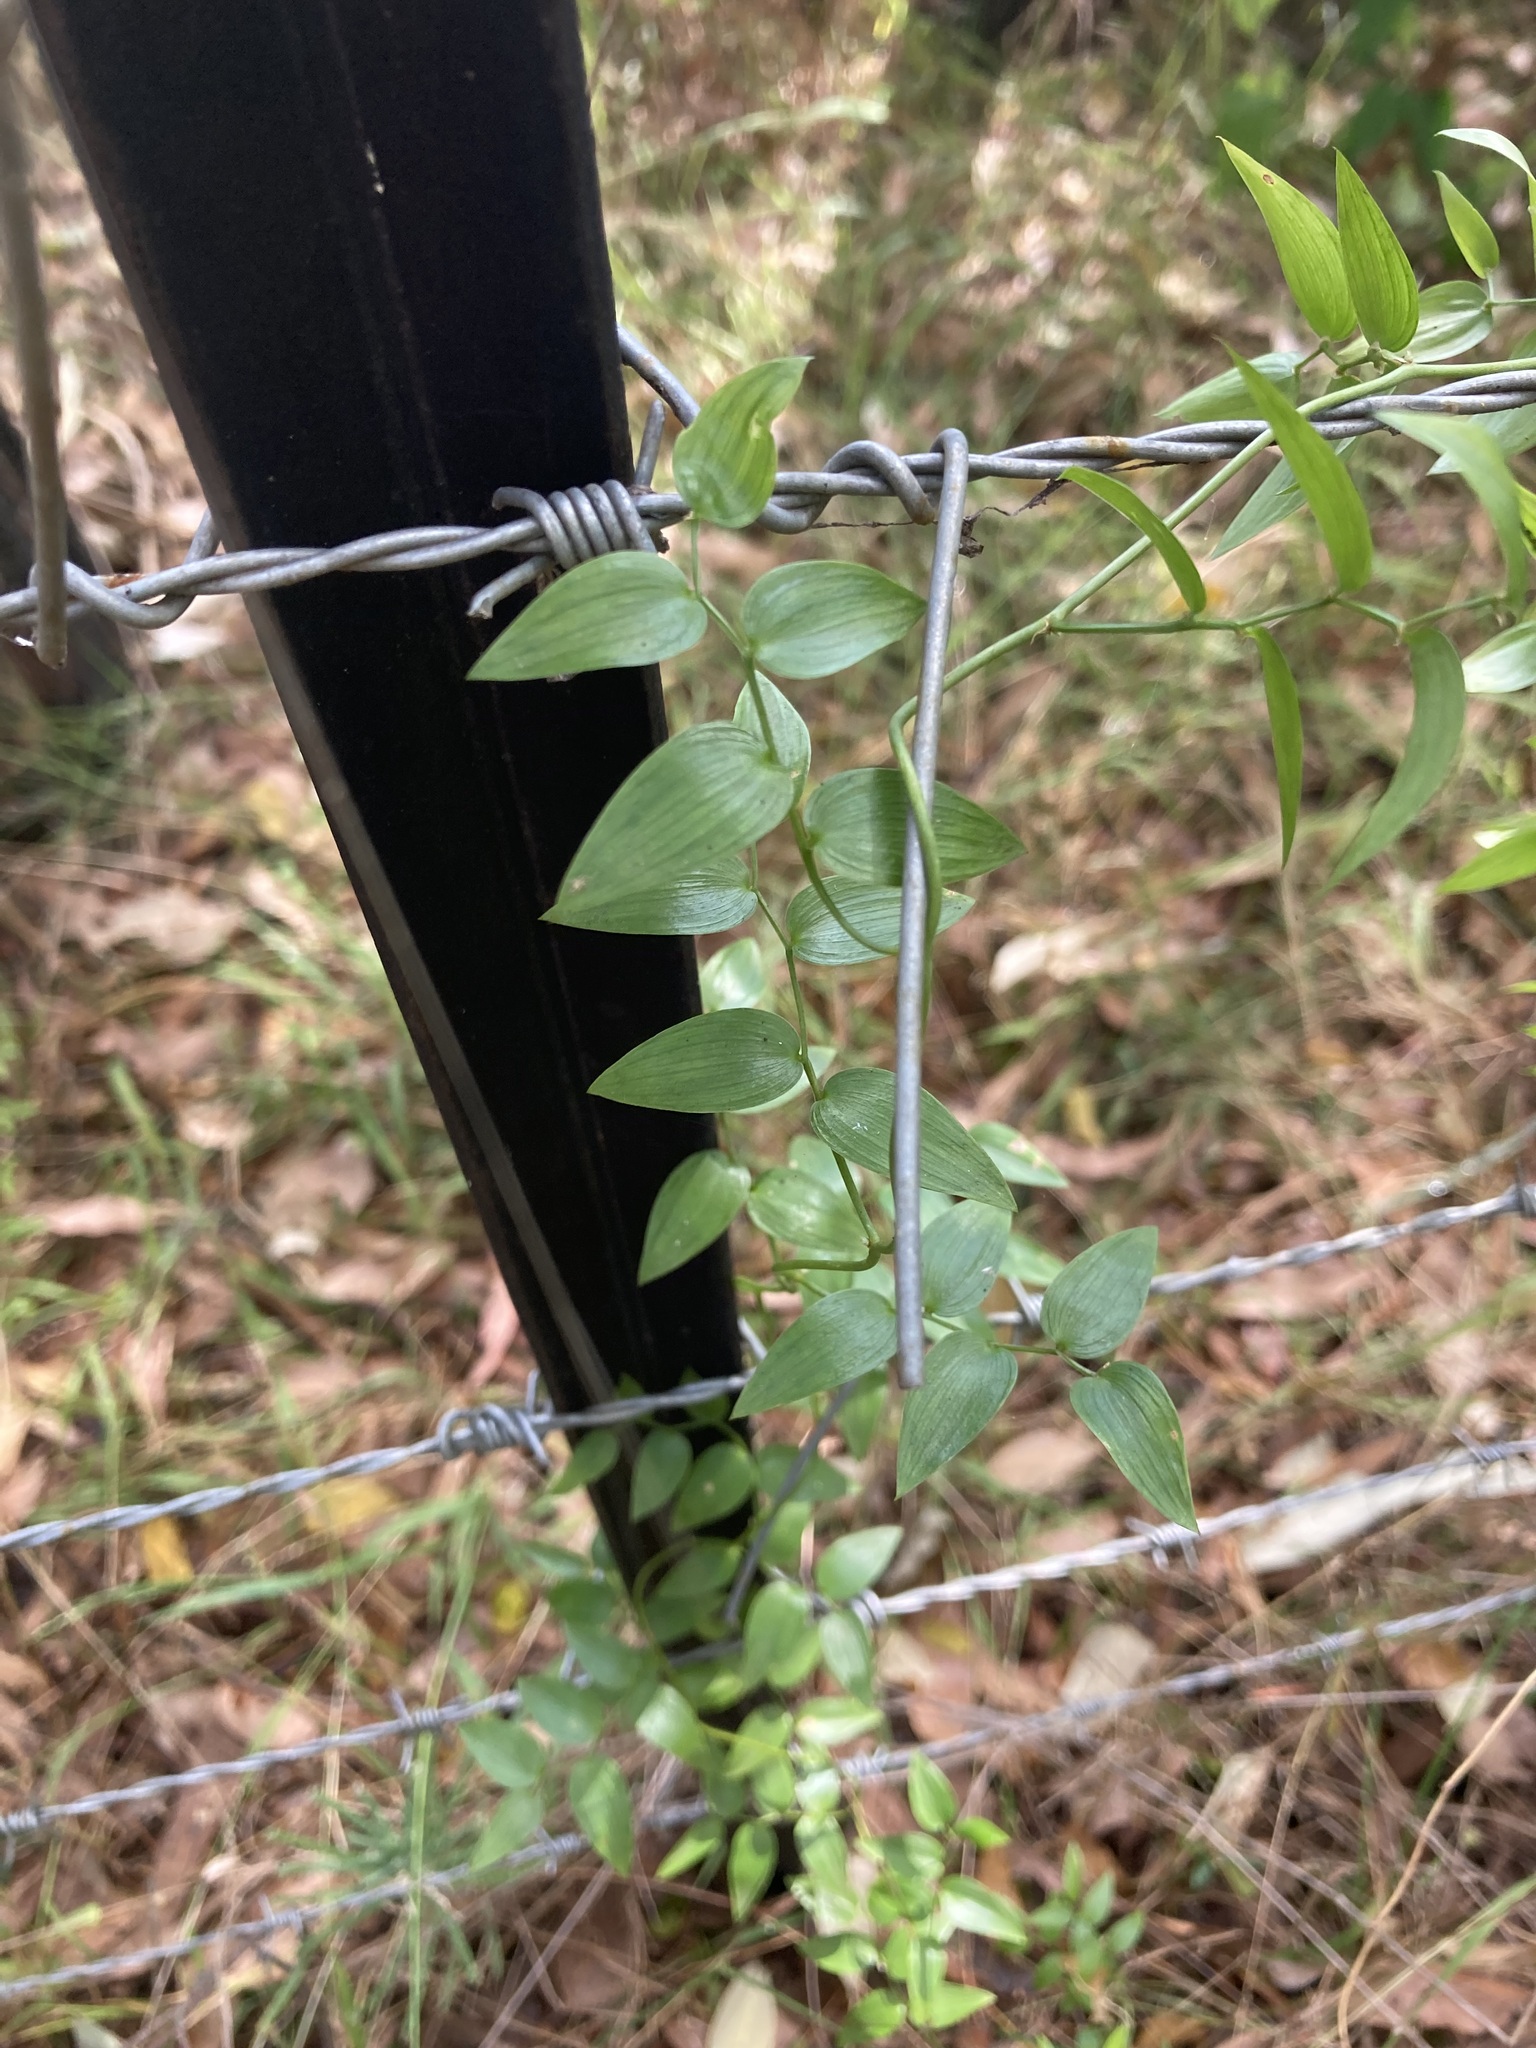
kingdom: Plantae
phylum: Tracheophyta
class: Liliopsida
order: Asparagales
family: Asparagaceae
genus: Asparagus
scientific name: Asparagus asparagoides
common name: African asparagus fern
